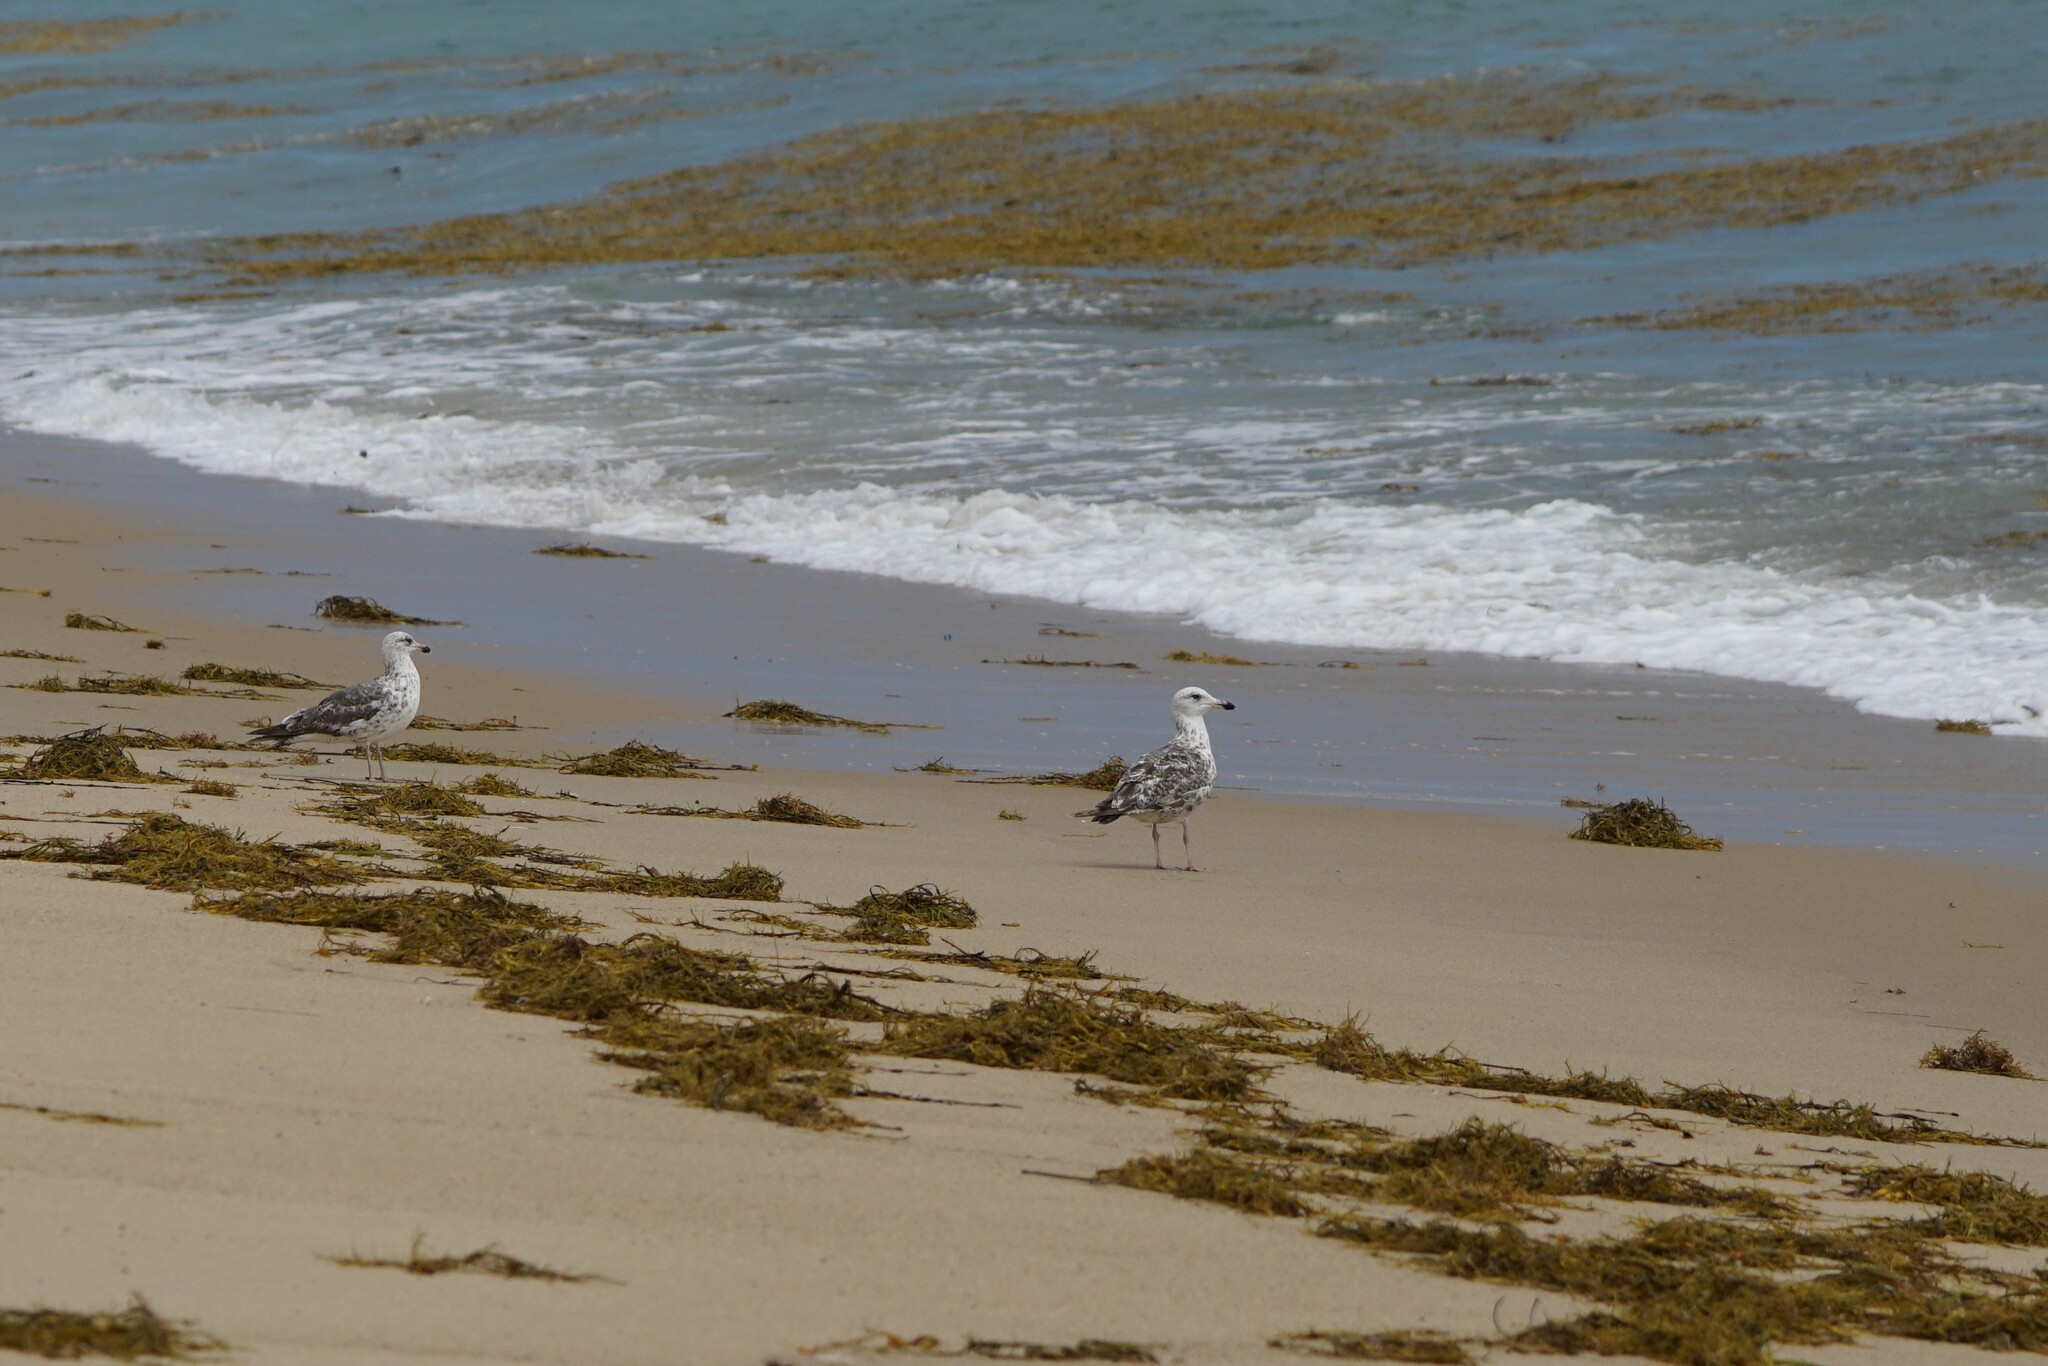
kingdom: Animalia
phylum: Chordata
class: Aves
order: Charadriiformes
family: Laridae
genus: Larus
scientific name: Larus fuscus
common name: Lesser black-backed gull
